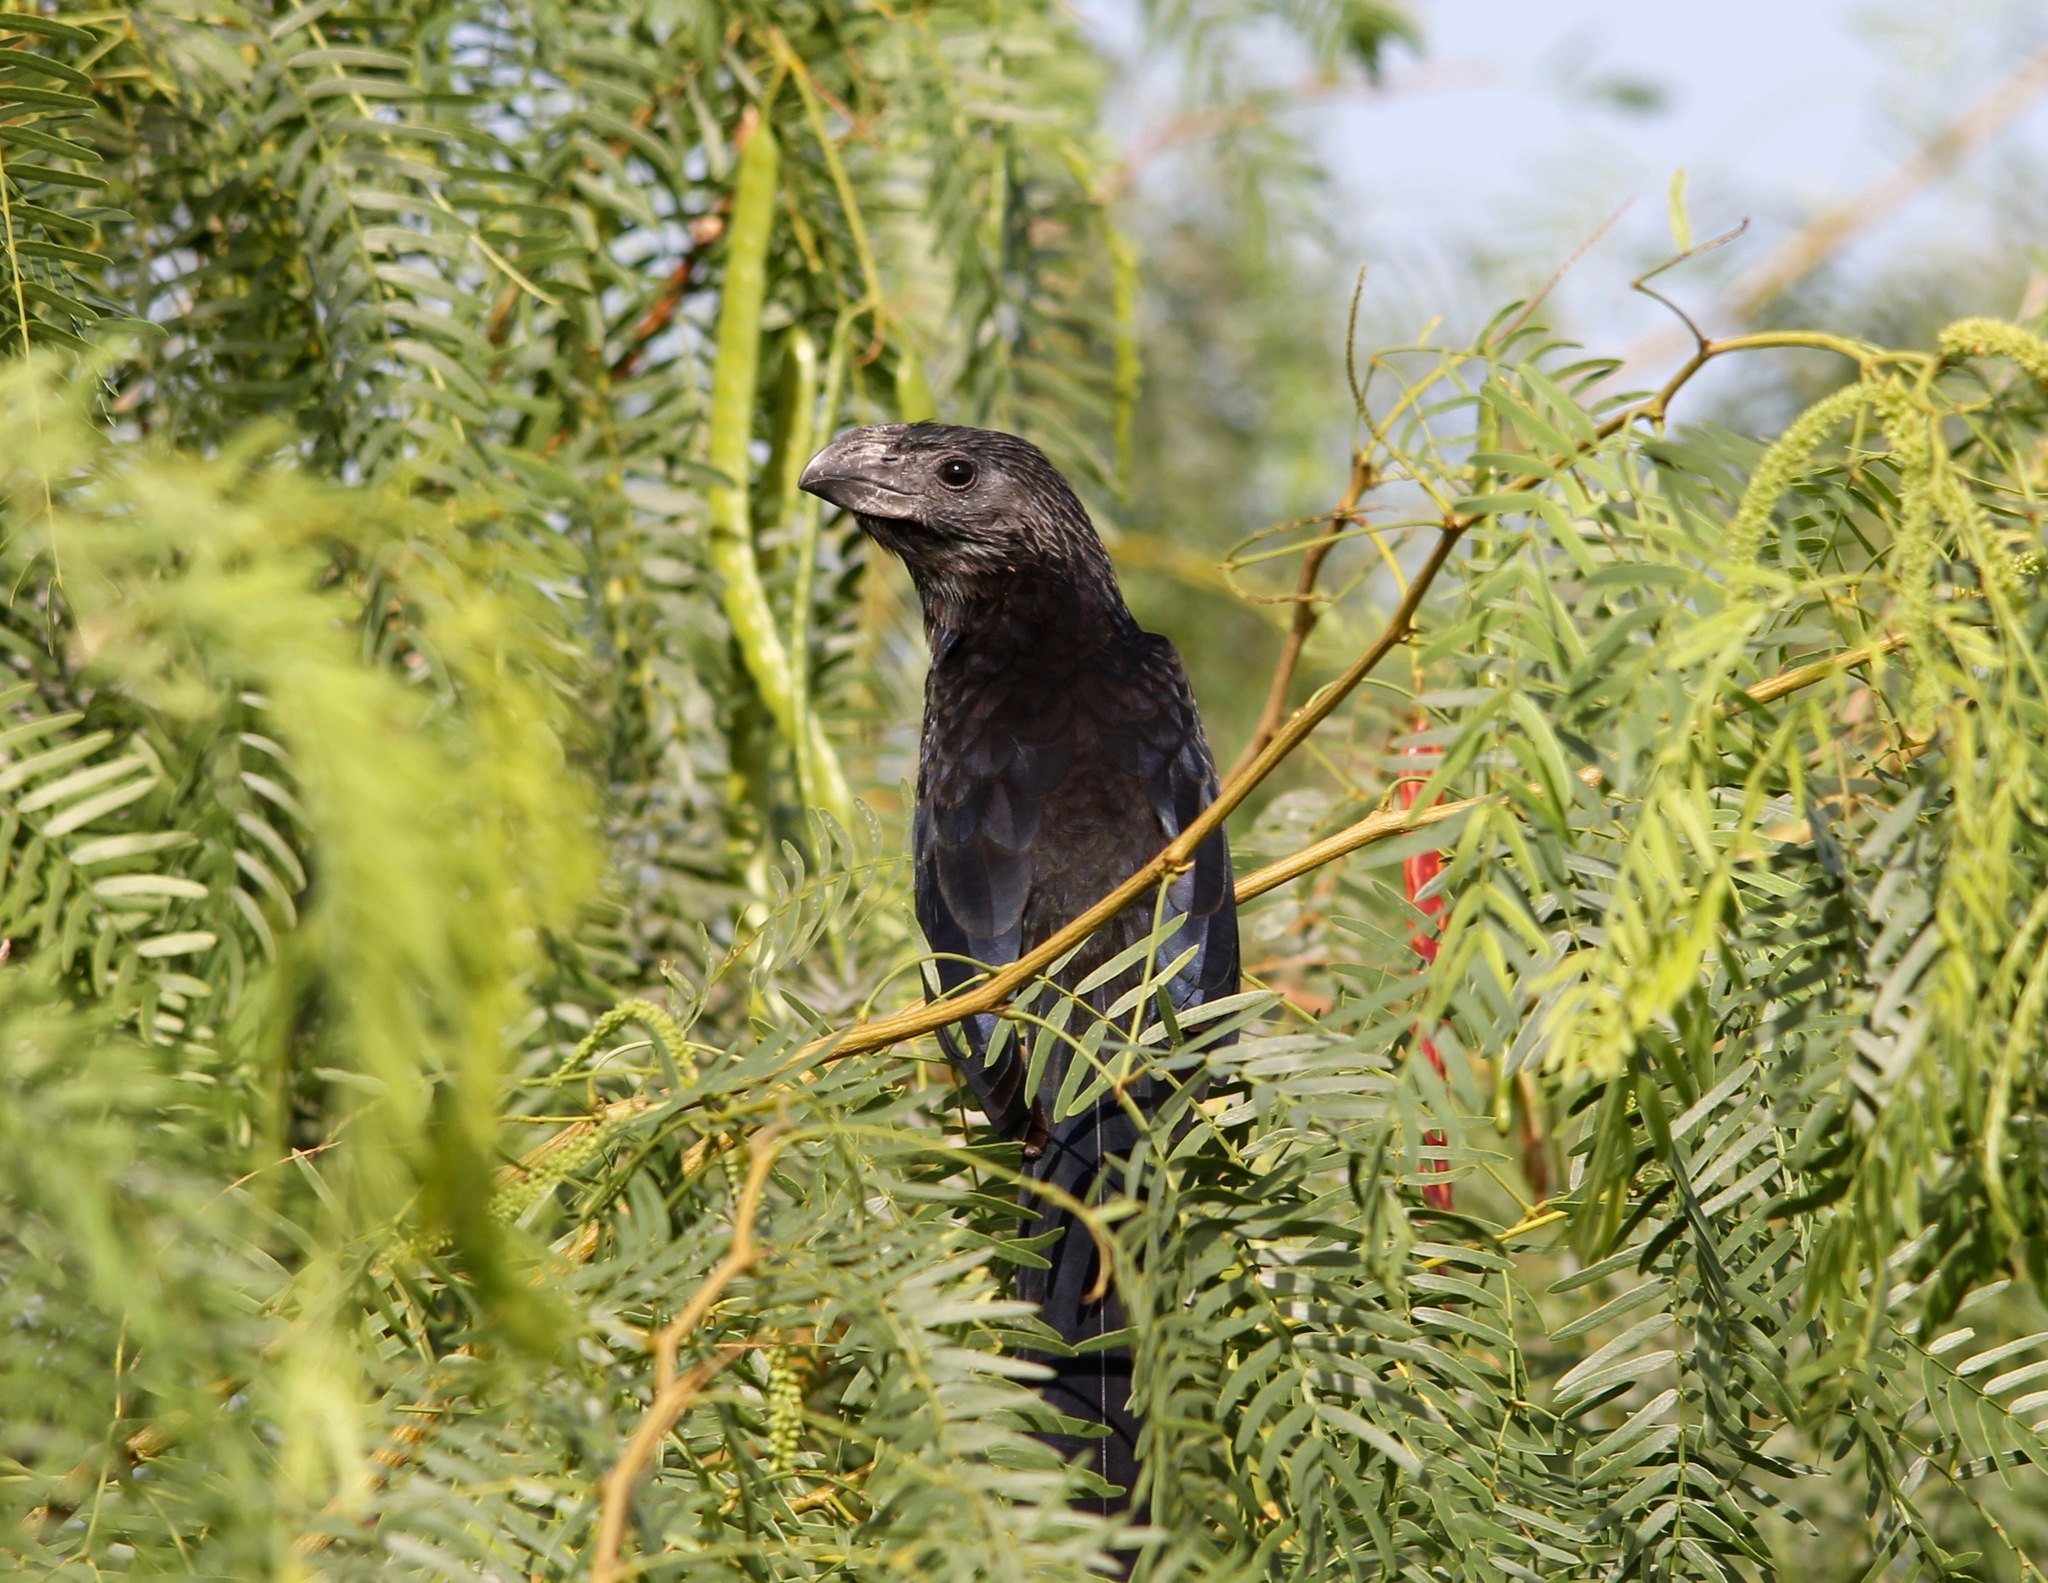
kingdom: Animalia
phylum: Chordata
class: Aves
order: Cuculiformes
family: Cuculidae
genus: Crotophaga
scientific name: Crotophaga sulcirostris
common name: Groove-billed ani
